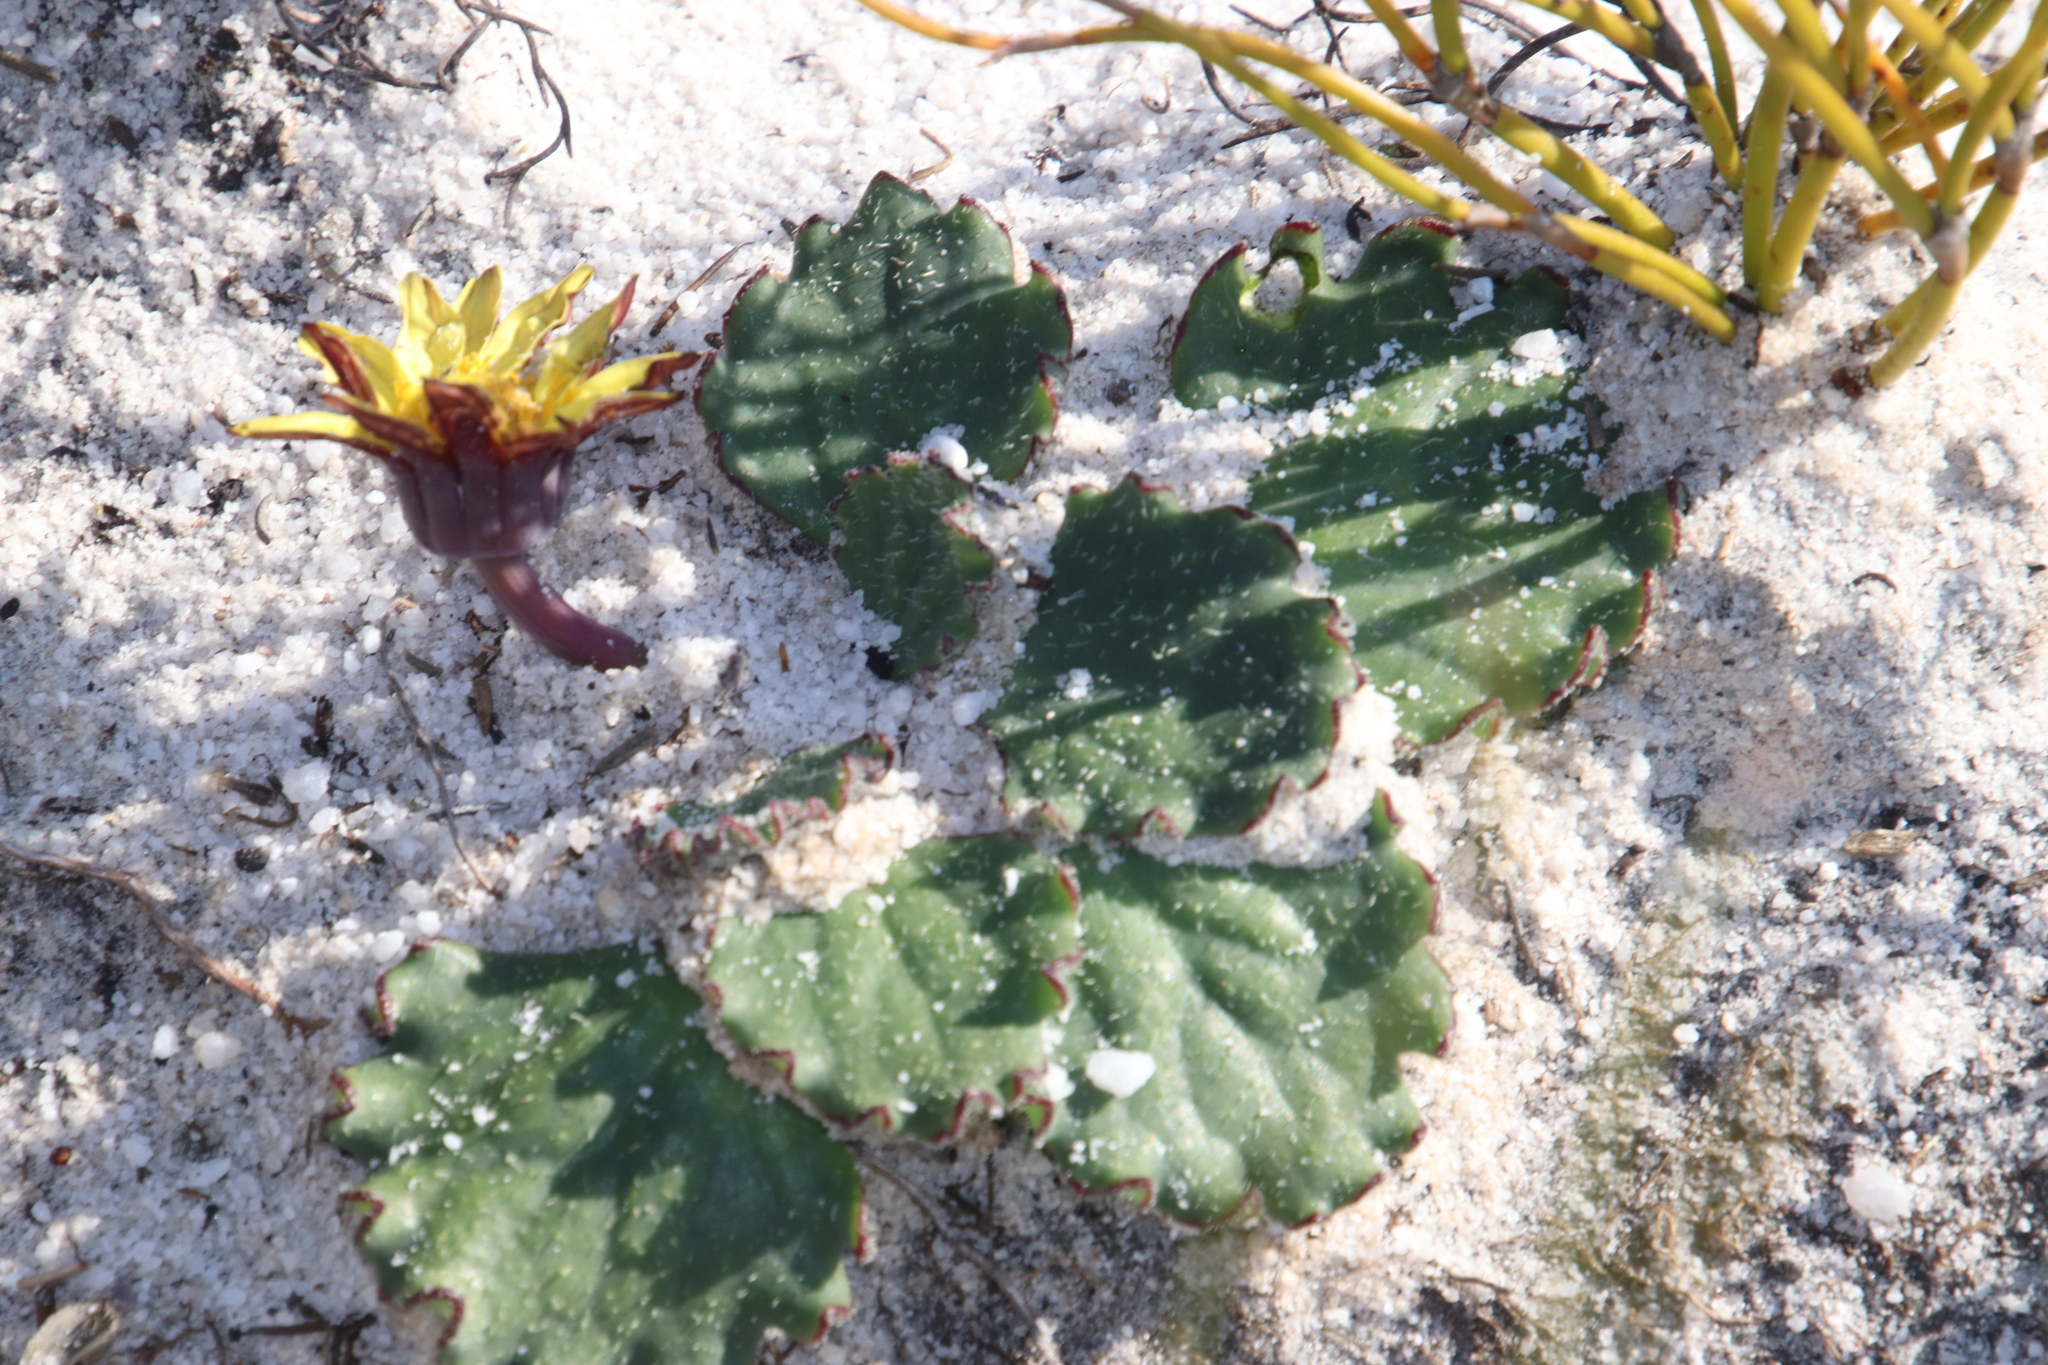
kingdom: Plantae
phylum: Tracheophyta
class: Magnoliopsida
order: Asterales
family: Asteraceae
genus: Othonna
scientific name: Othonna heterophylla
